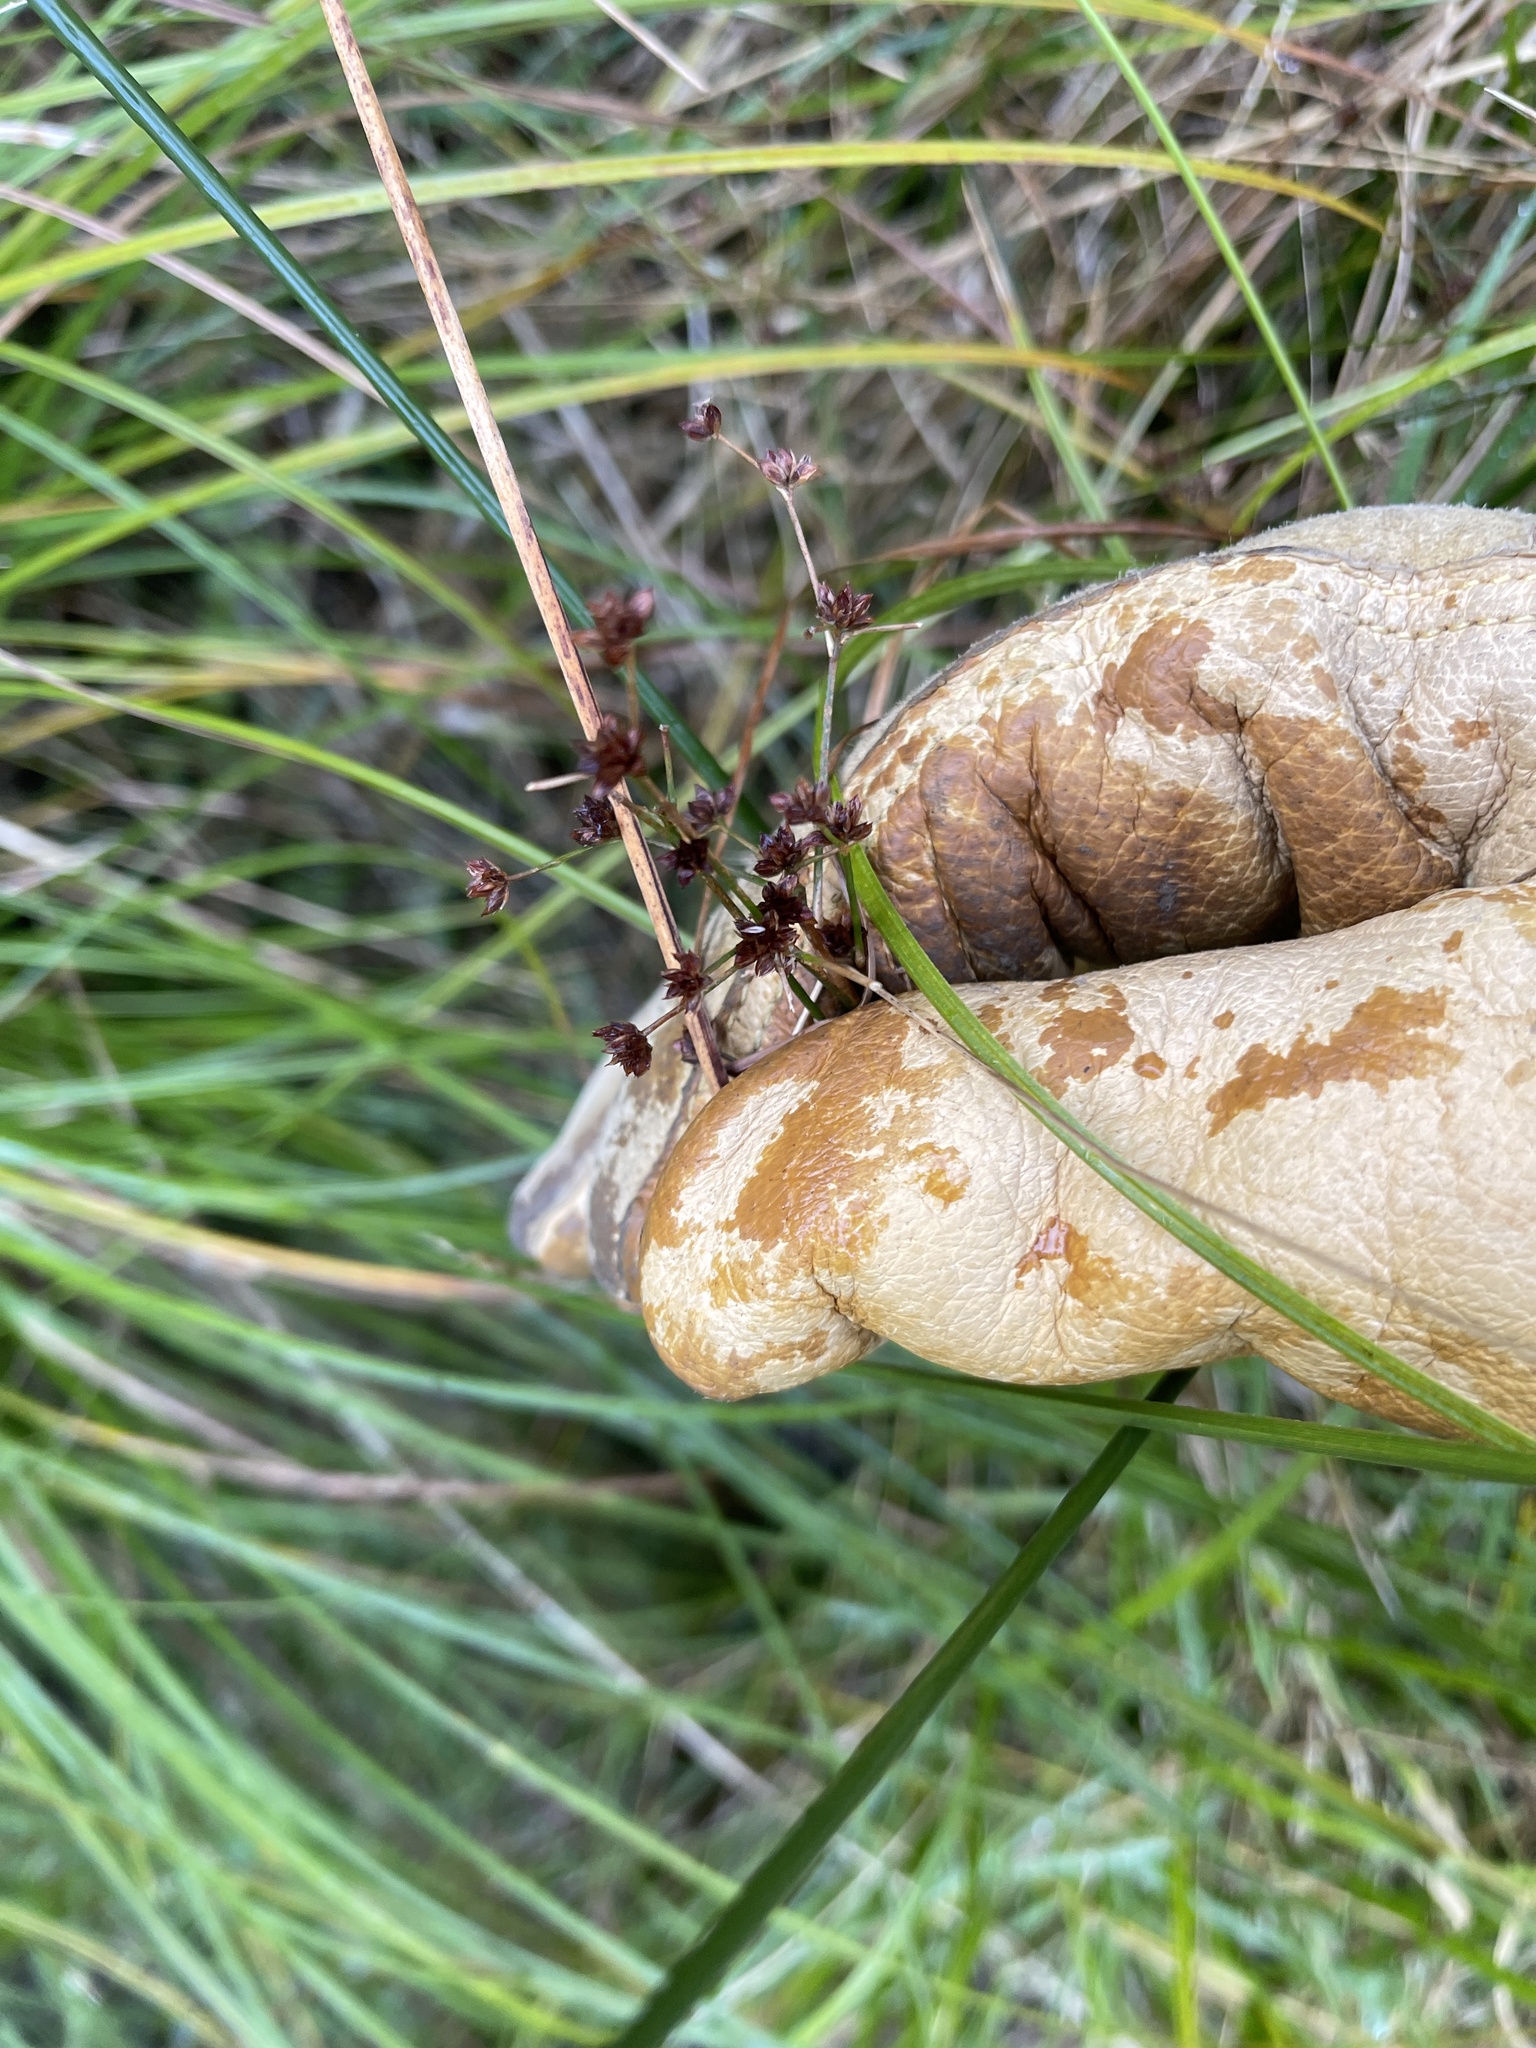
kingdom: Plantae
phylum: Tracheophyta
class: Liliopsida
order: Poales
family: Juncaceae
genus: Juncus
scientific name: Juncus articulatus
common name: Jointed rush
